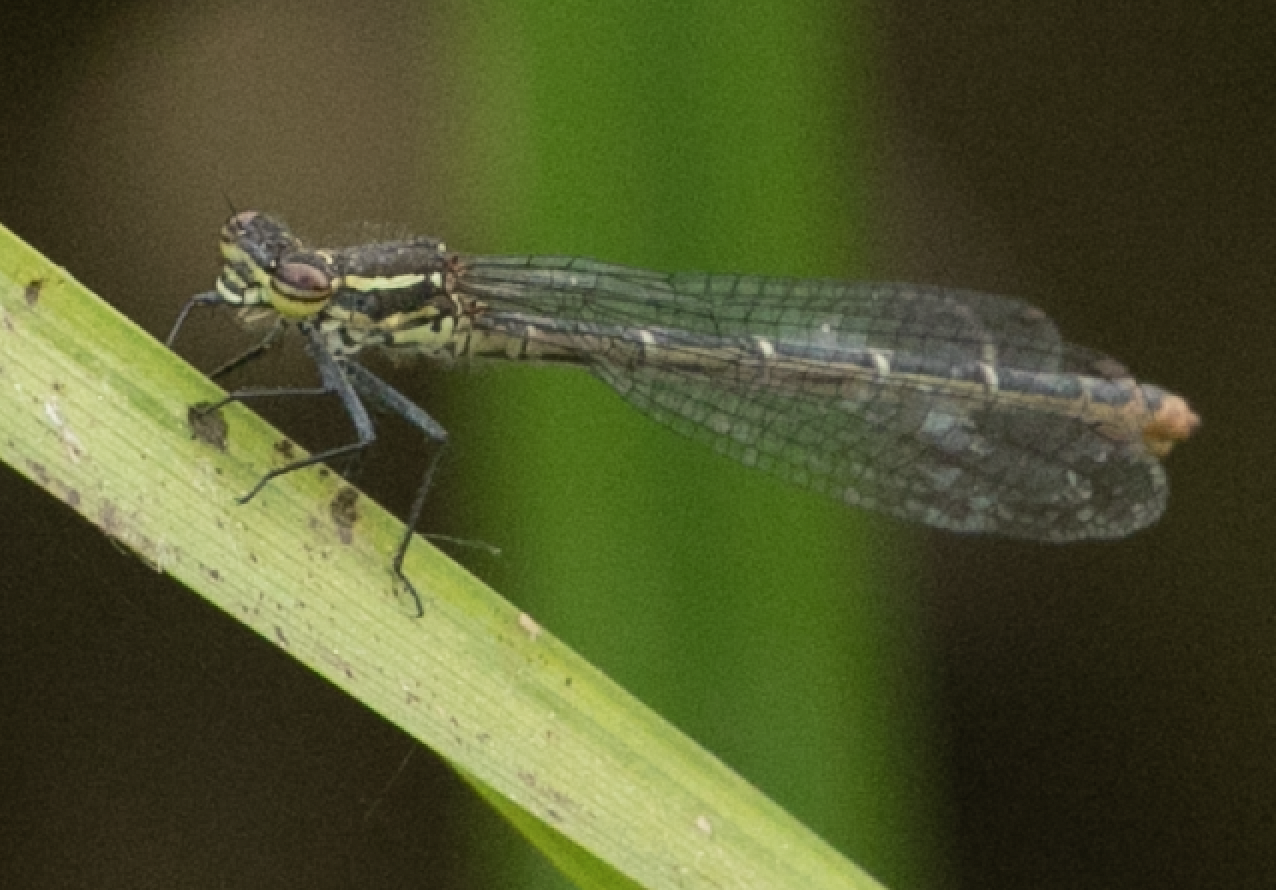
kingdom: Animalia
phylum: Arthropoda
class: Insecta
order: Odonata
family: Coenagrionidae
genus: Pyrrhosoma
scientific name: Pyrrhosoma nymphula
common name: Large red damsel
